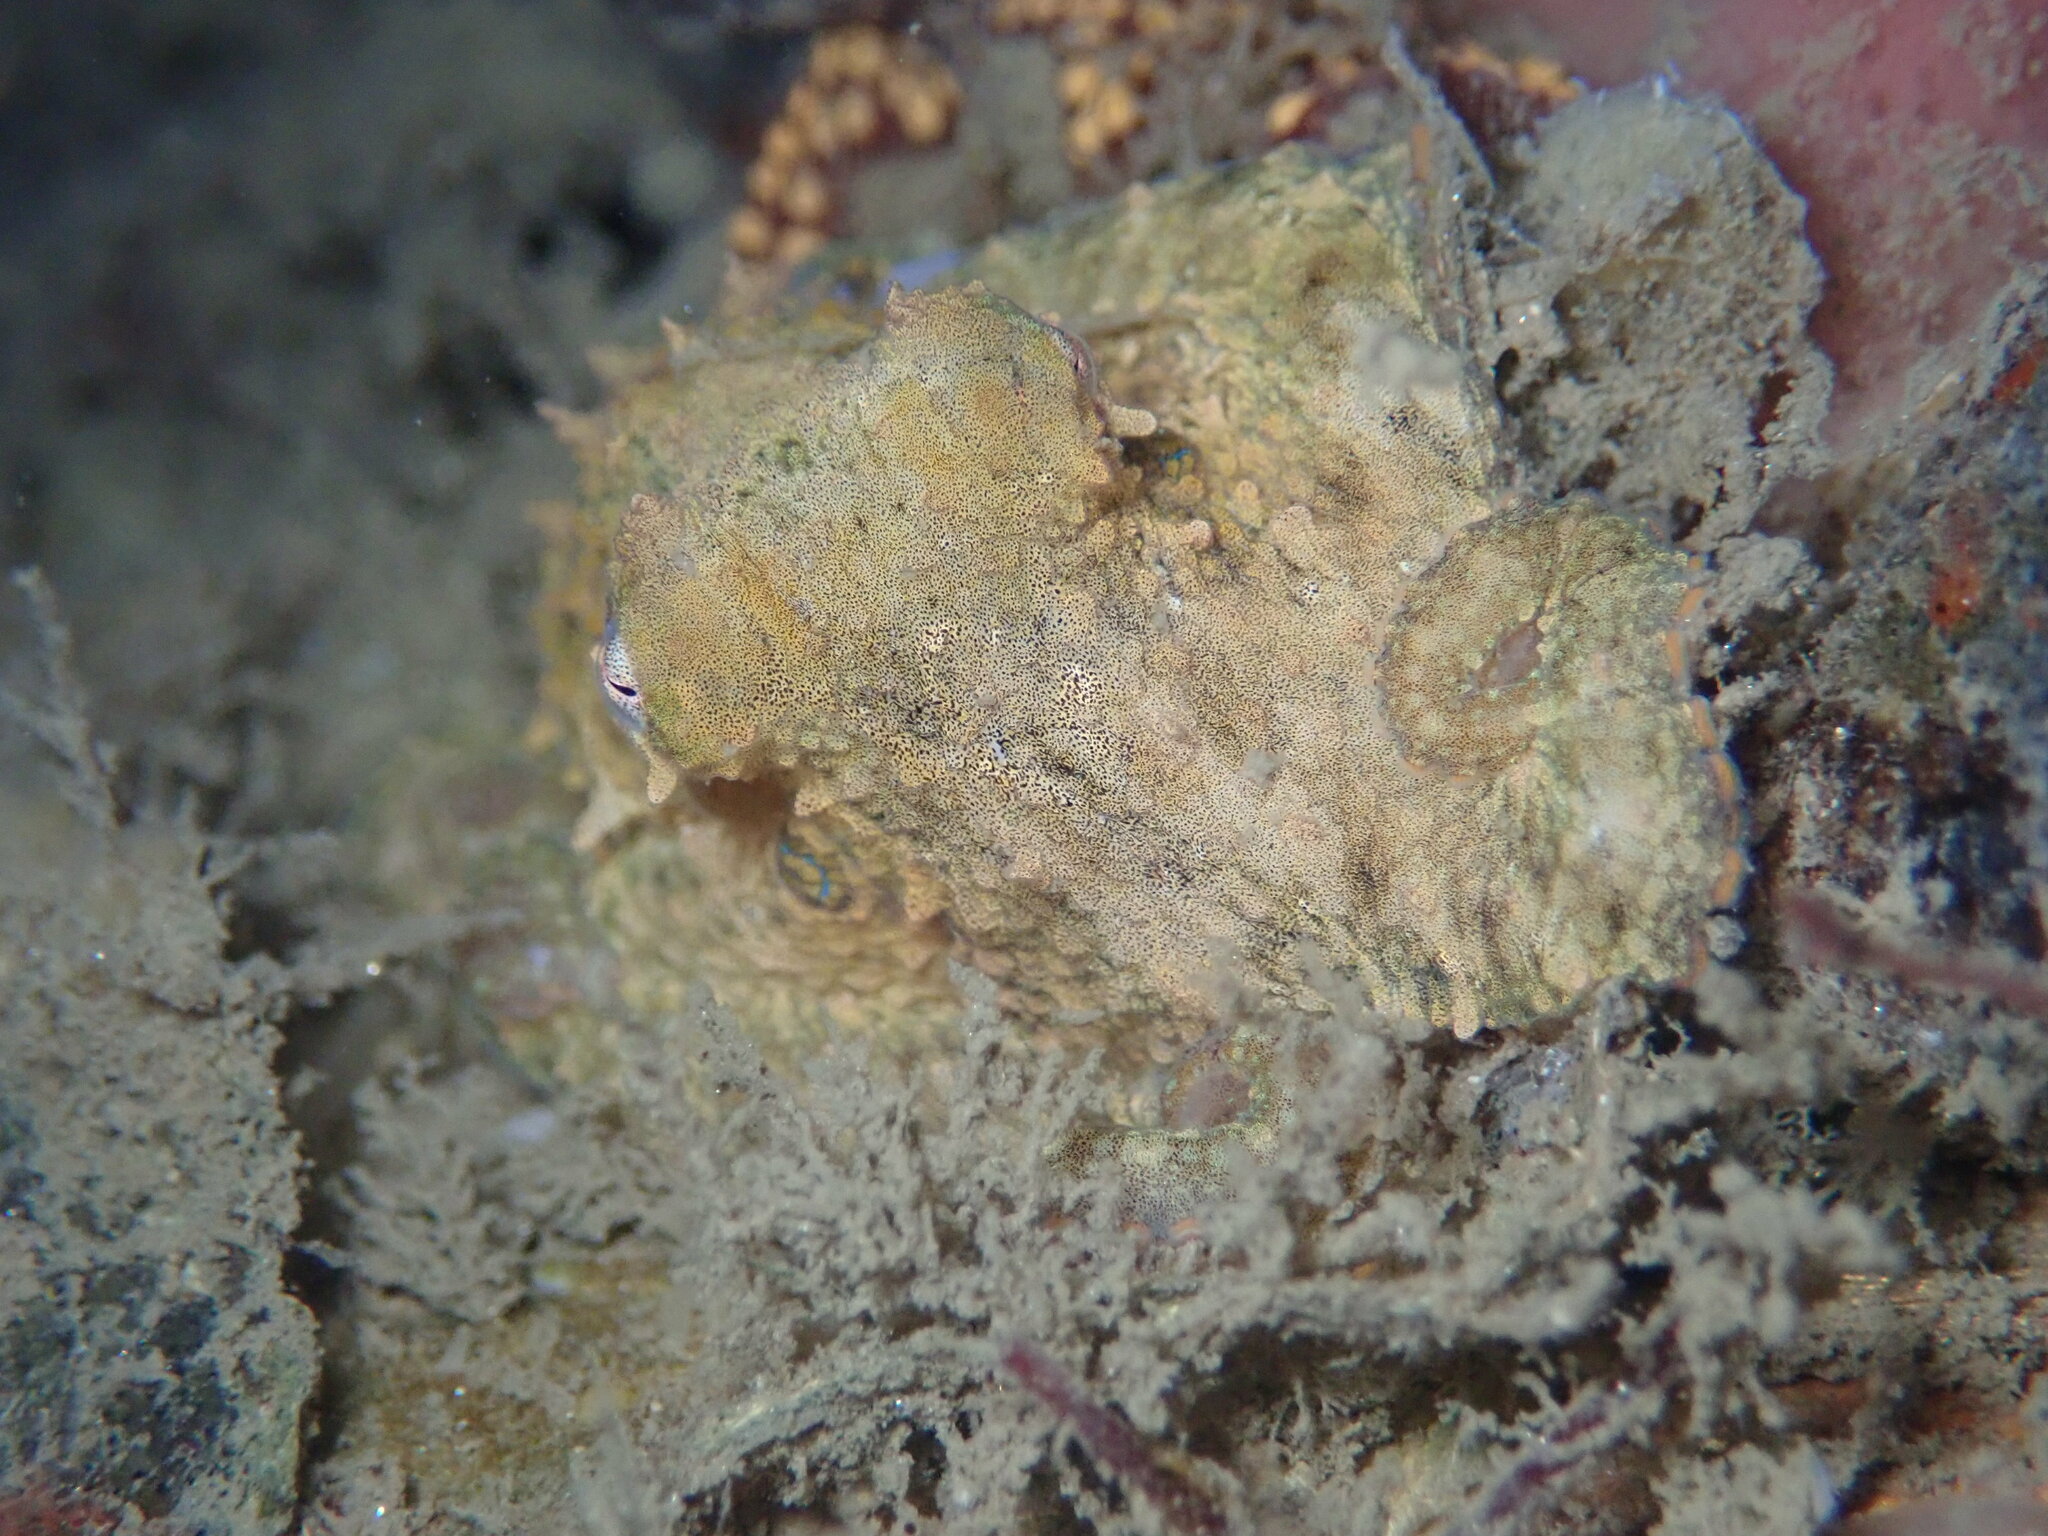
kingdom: Animalia
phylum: Mollusca
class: Cephalopoda
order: Octopoda
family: Octopodidae
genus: Octopus
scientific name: Octopus bimaculoides
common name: California two-spot octopus
